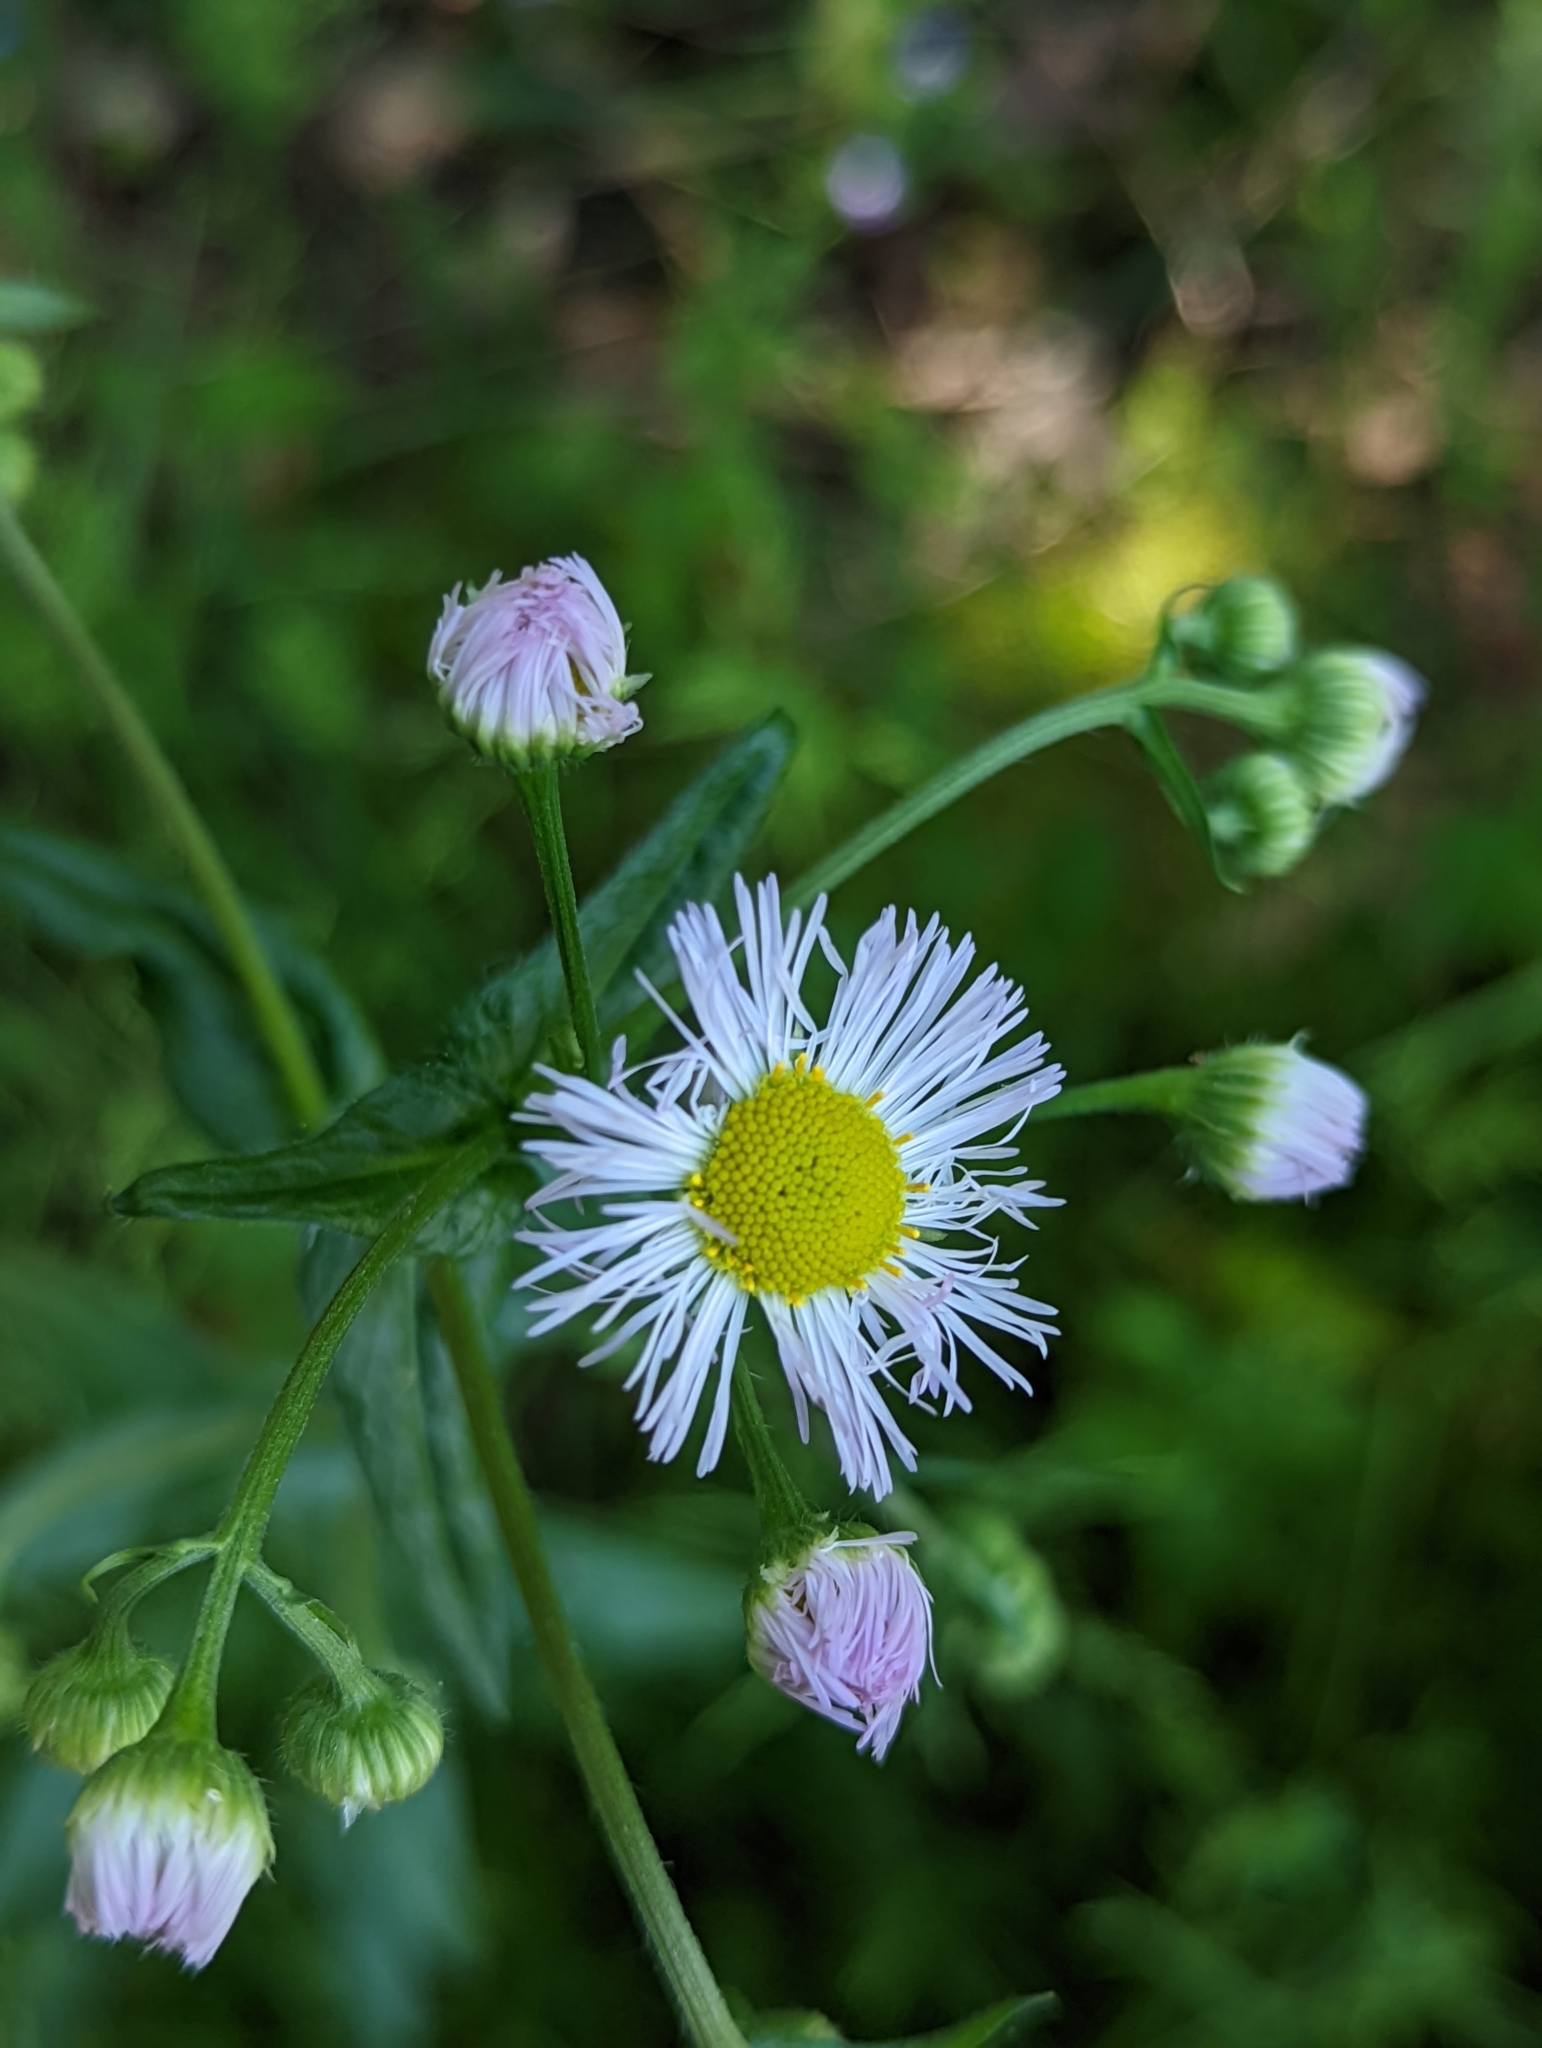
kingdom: Plantae
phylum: Tracheophyta
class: Magnoliopsida
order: Asterales
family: Asteraceae
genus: Erigeron
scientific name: Erigeron philadelphicus
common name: Robin's-plantain
